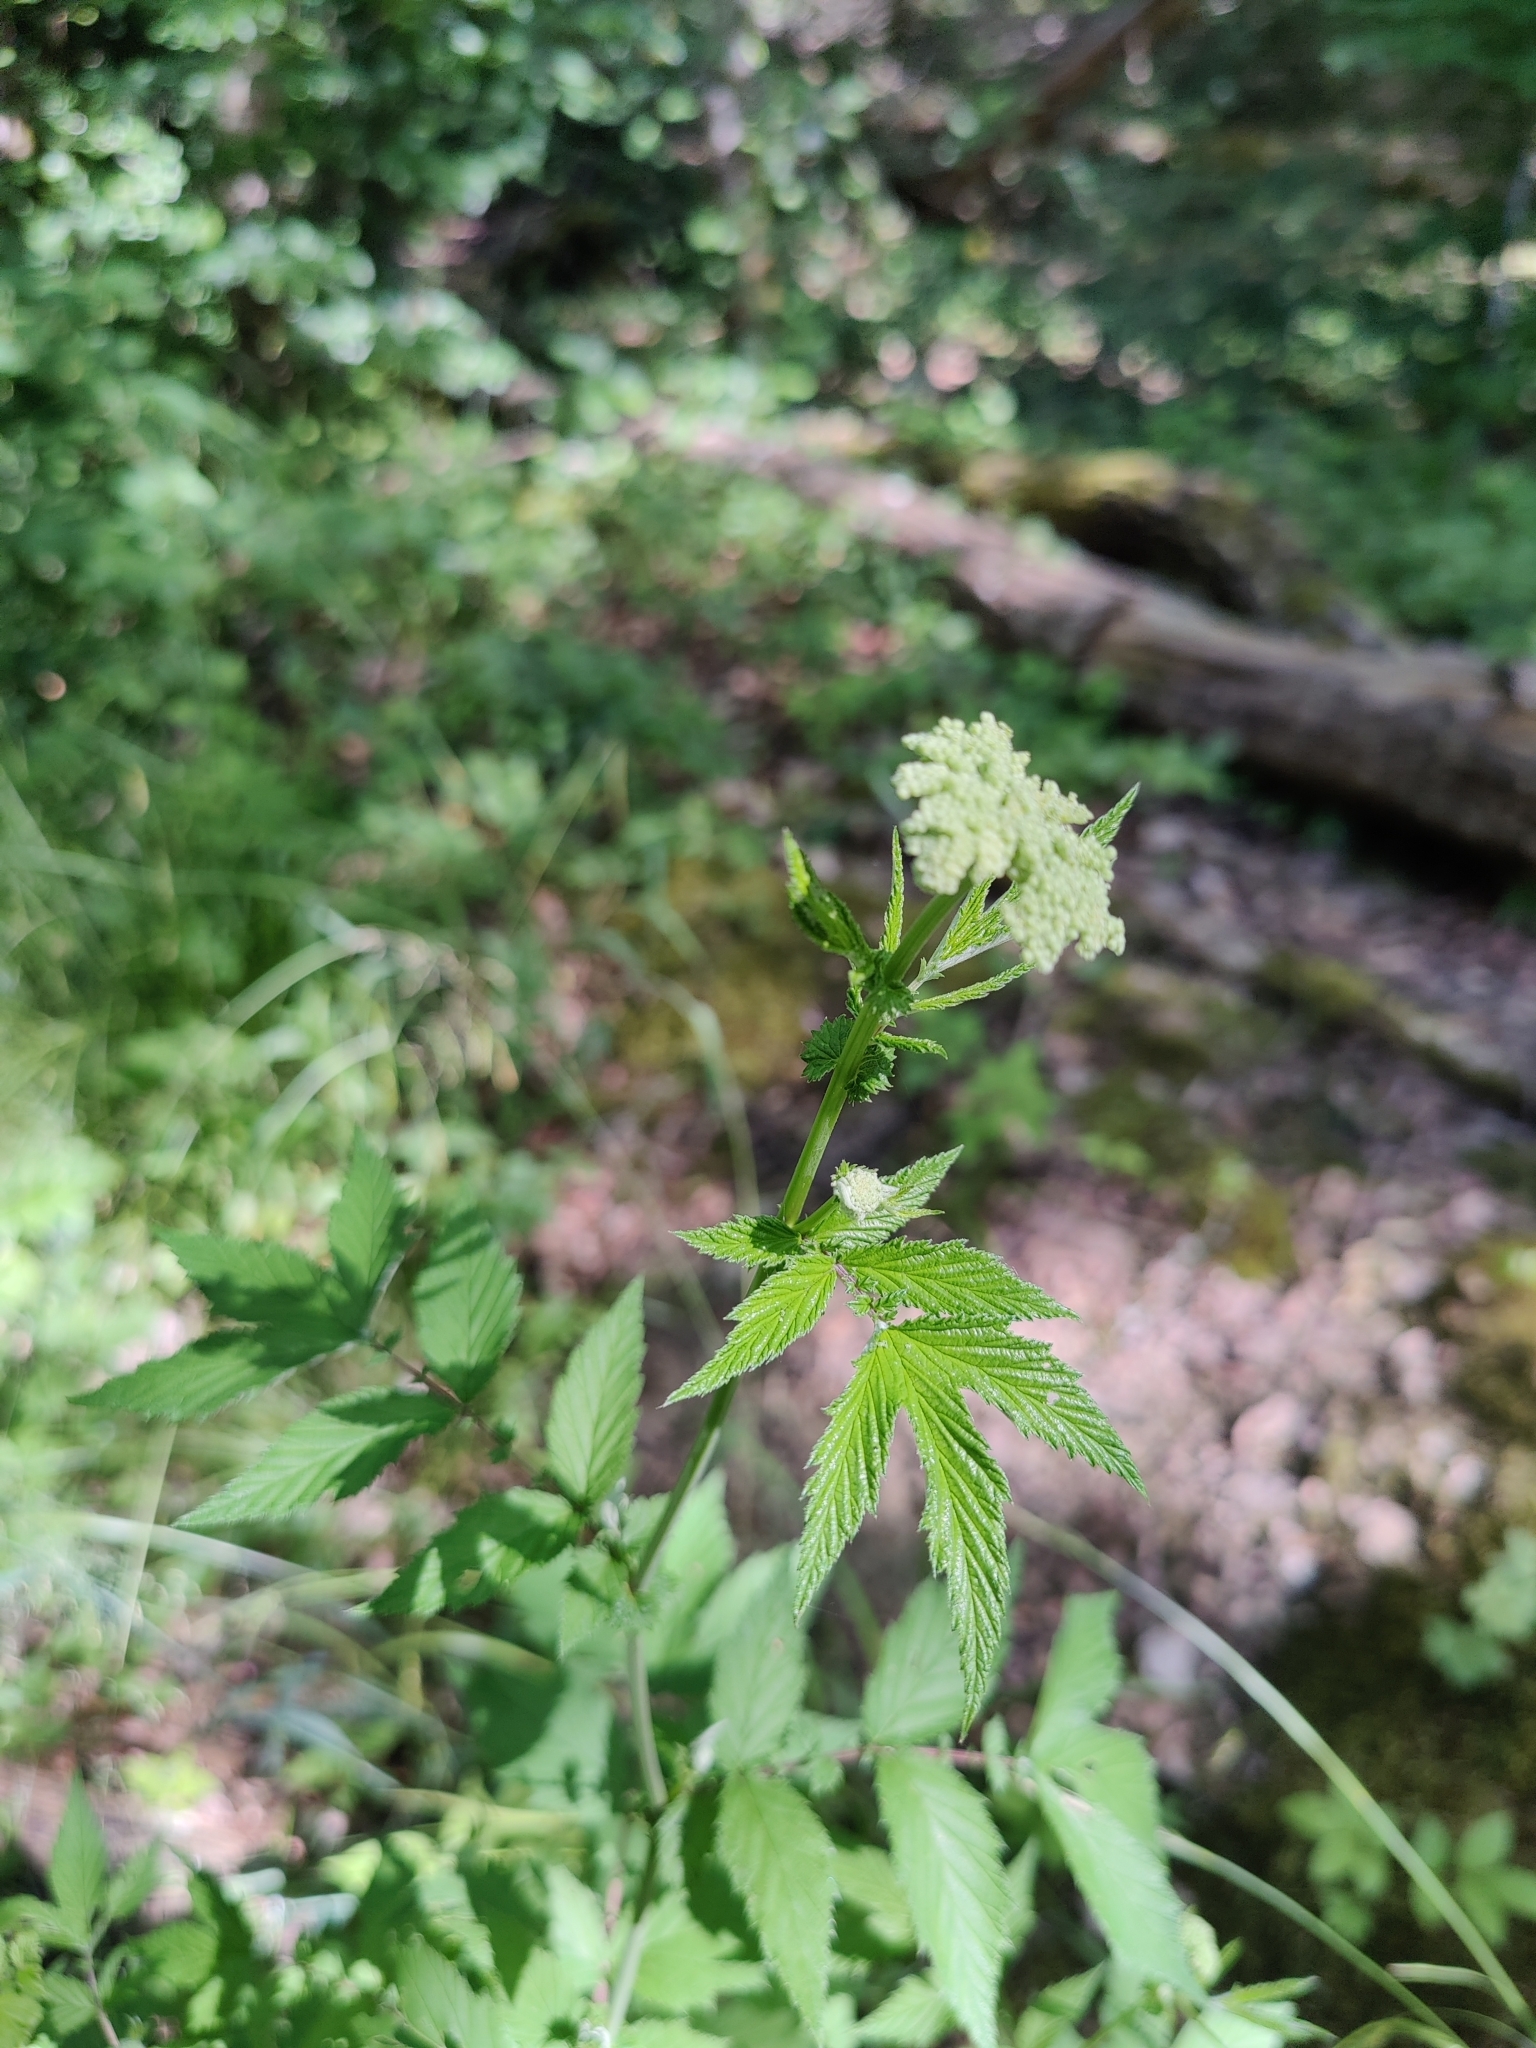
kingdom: Plantae
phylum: Tracheophyta
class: Magnoliopsida
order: Rosales
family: Rosaceae
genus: Filipendula
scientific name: Filipendula ulmaria
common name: Meadowsweet
